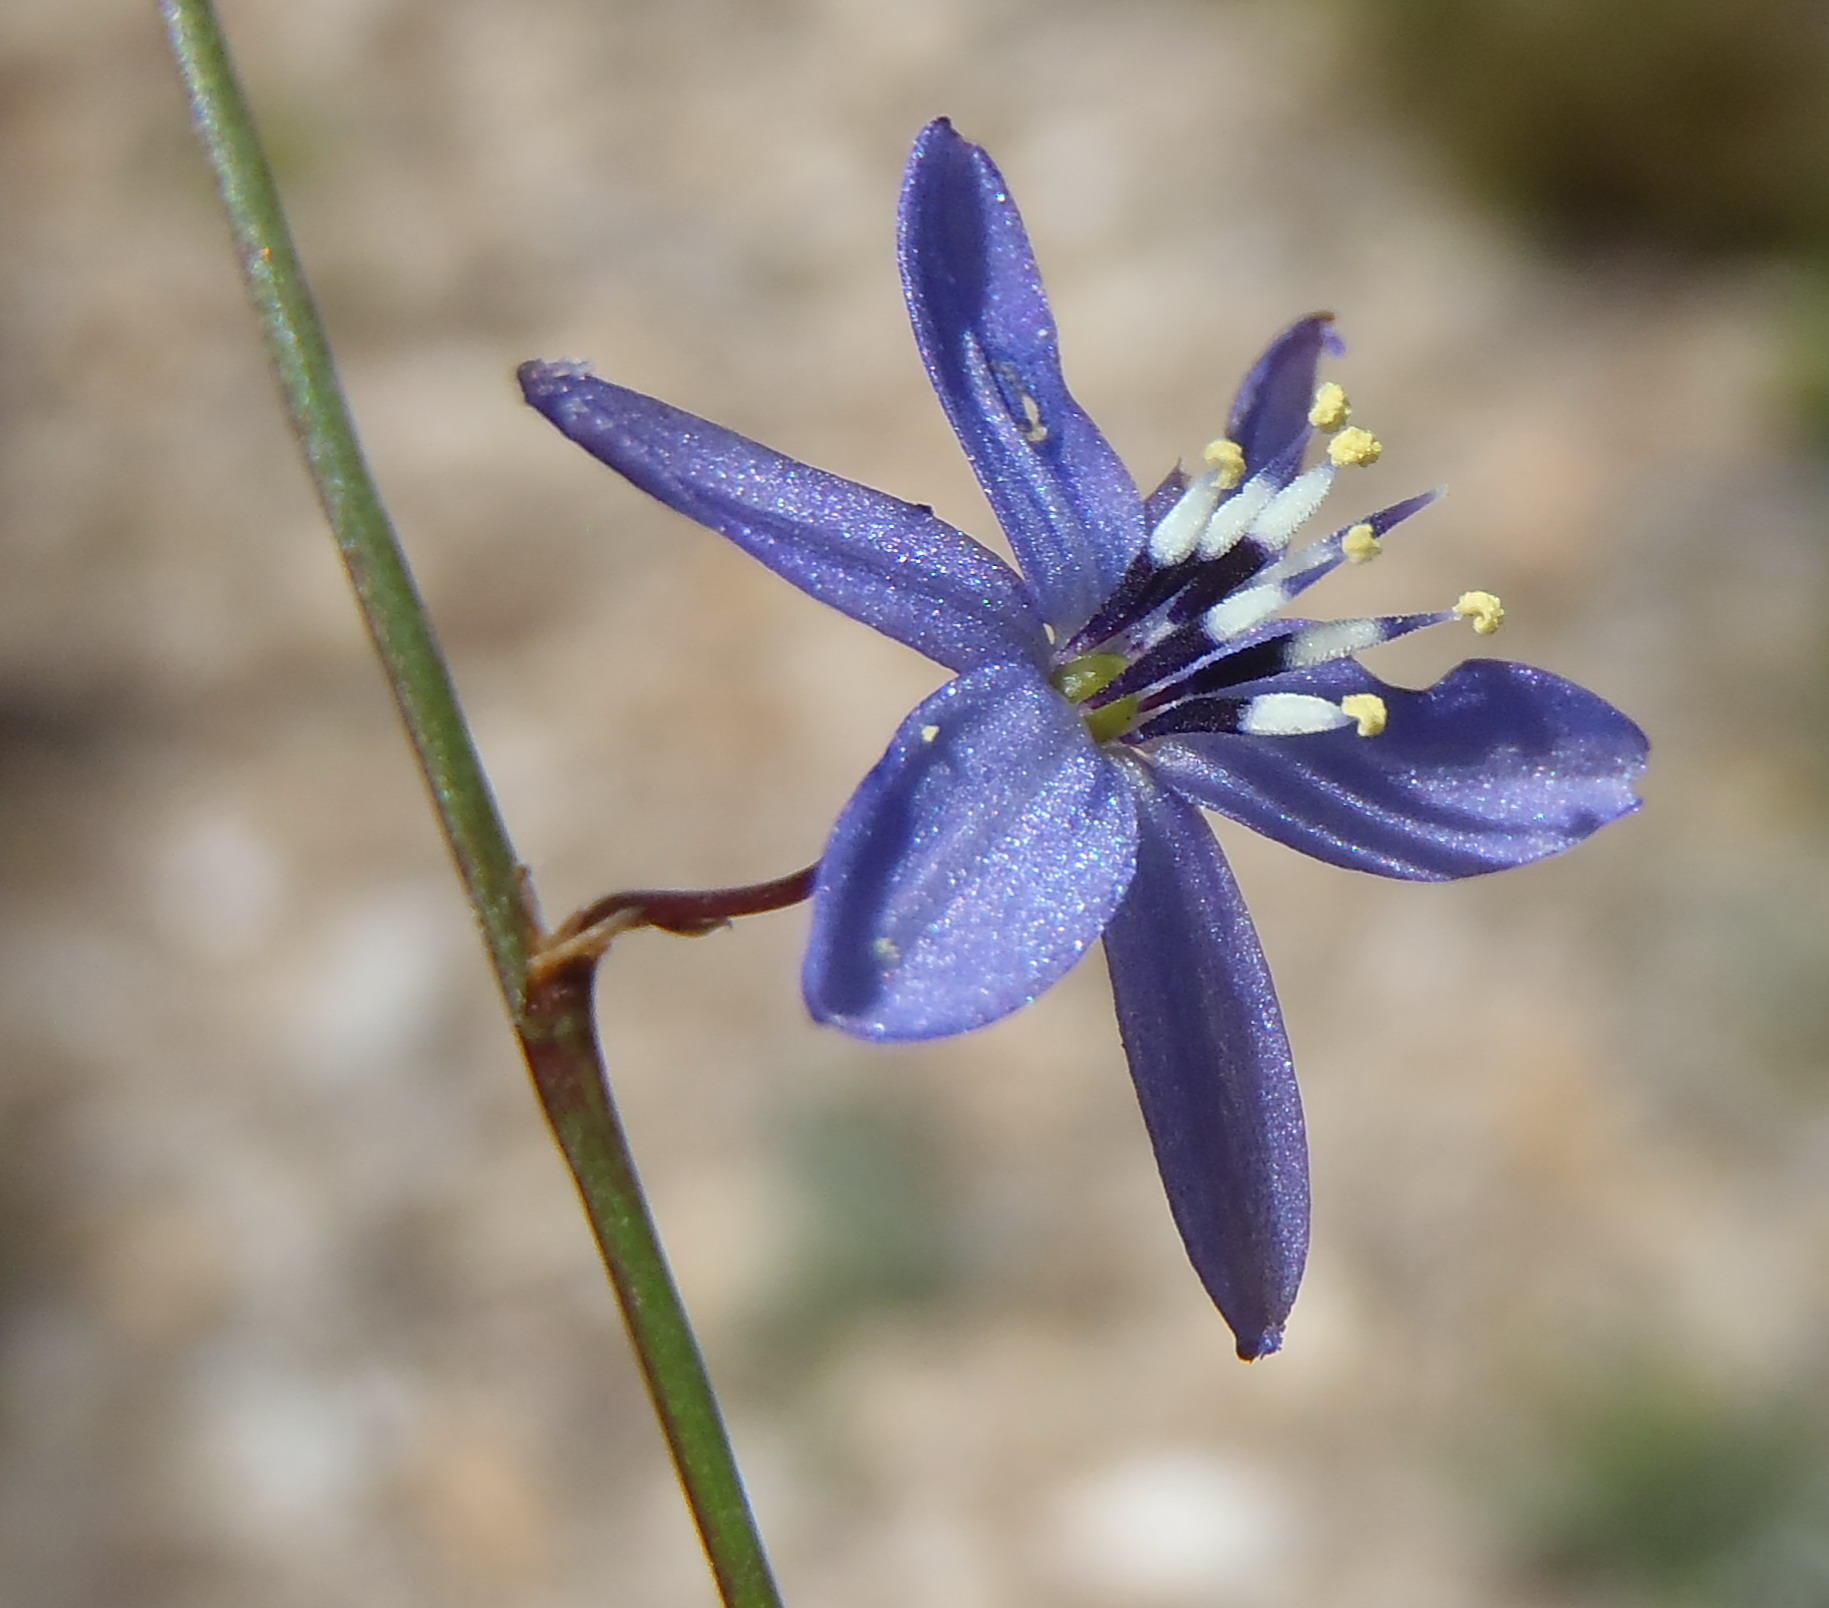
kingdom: Plantae
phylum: Tracheophyta
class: Liliopsida
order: Asparagales
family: Asphodelaceae
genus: Caesia
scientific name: Caesia contorta
